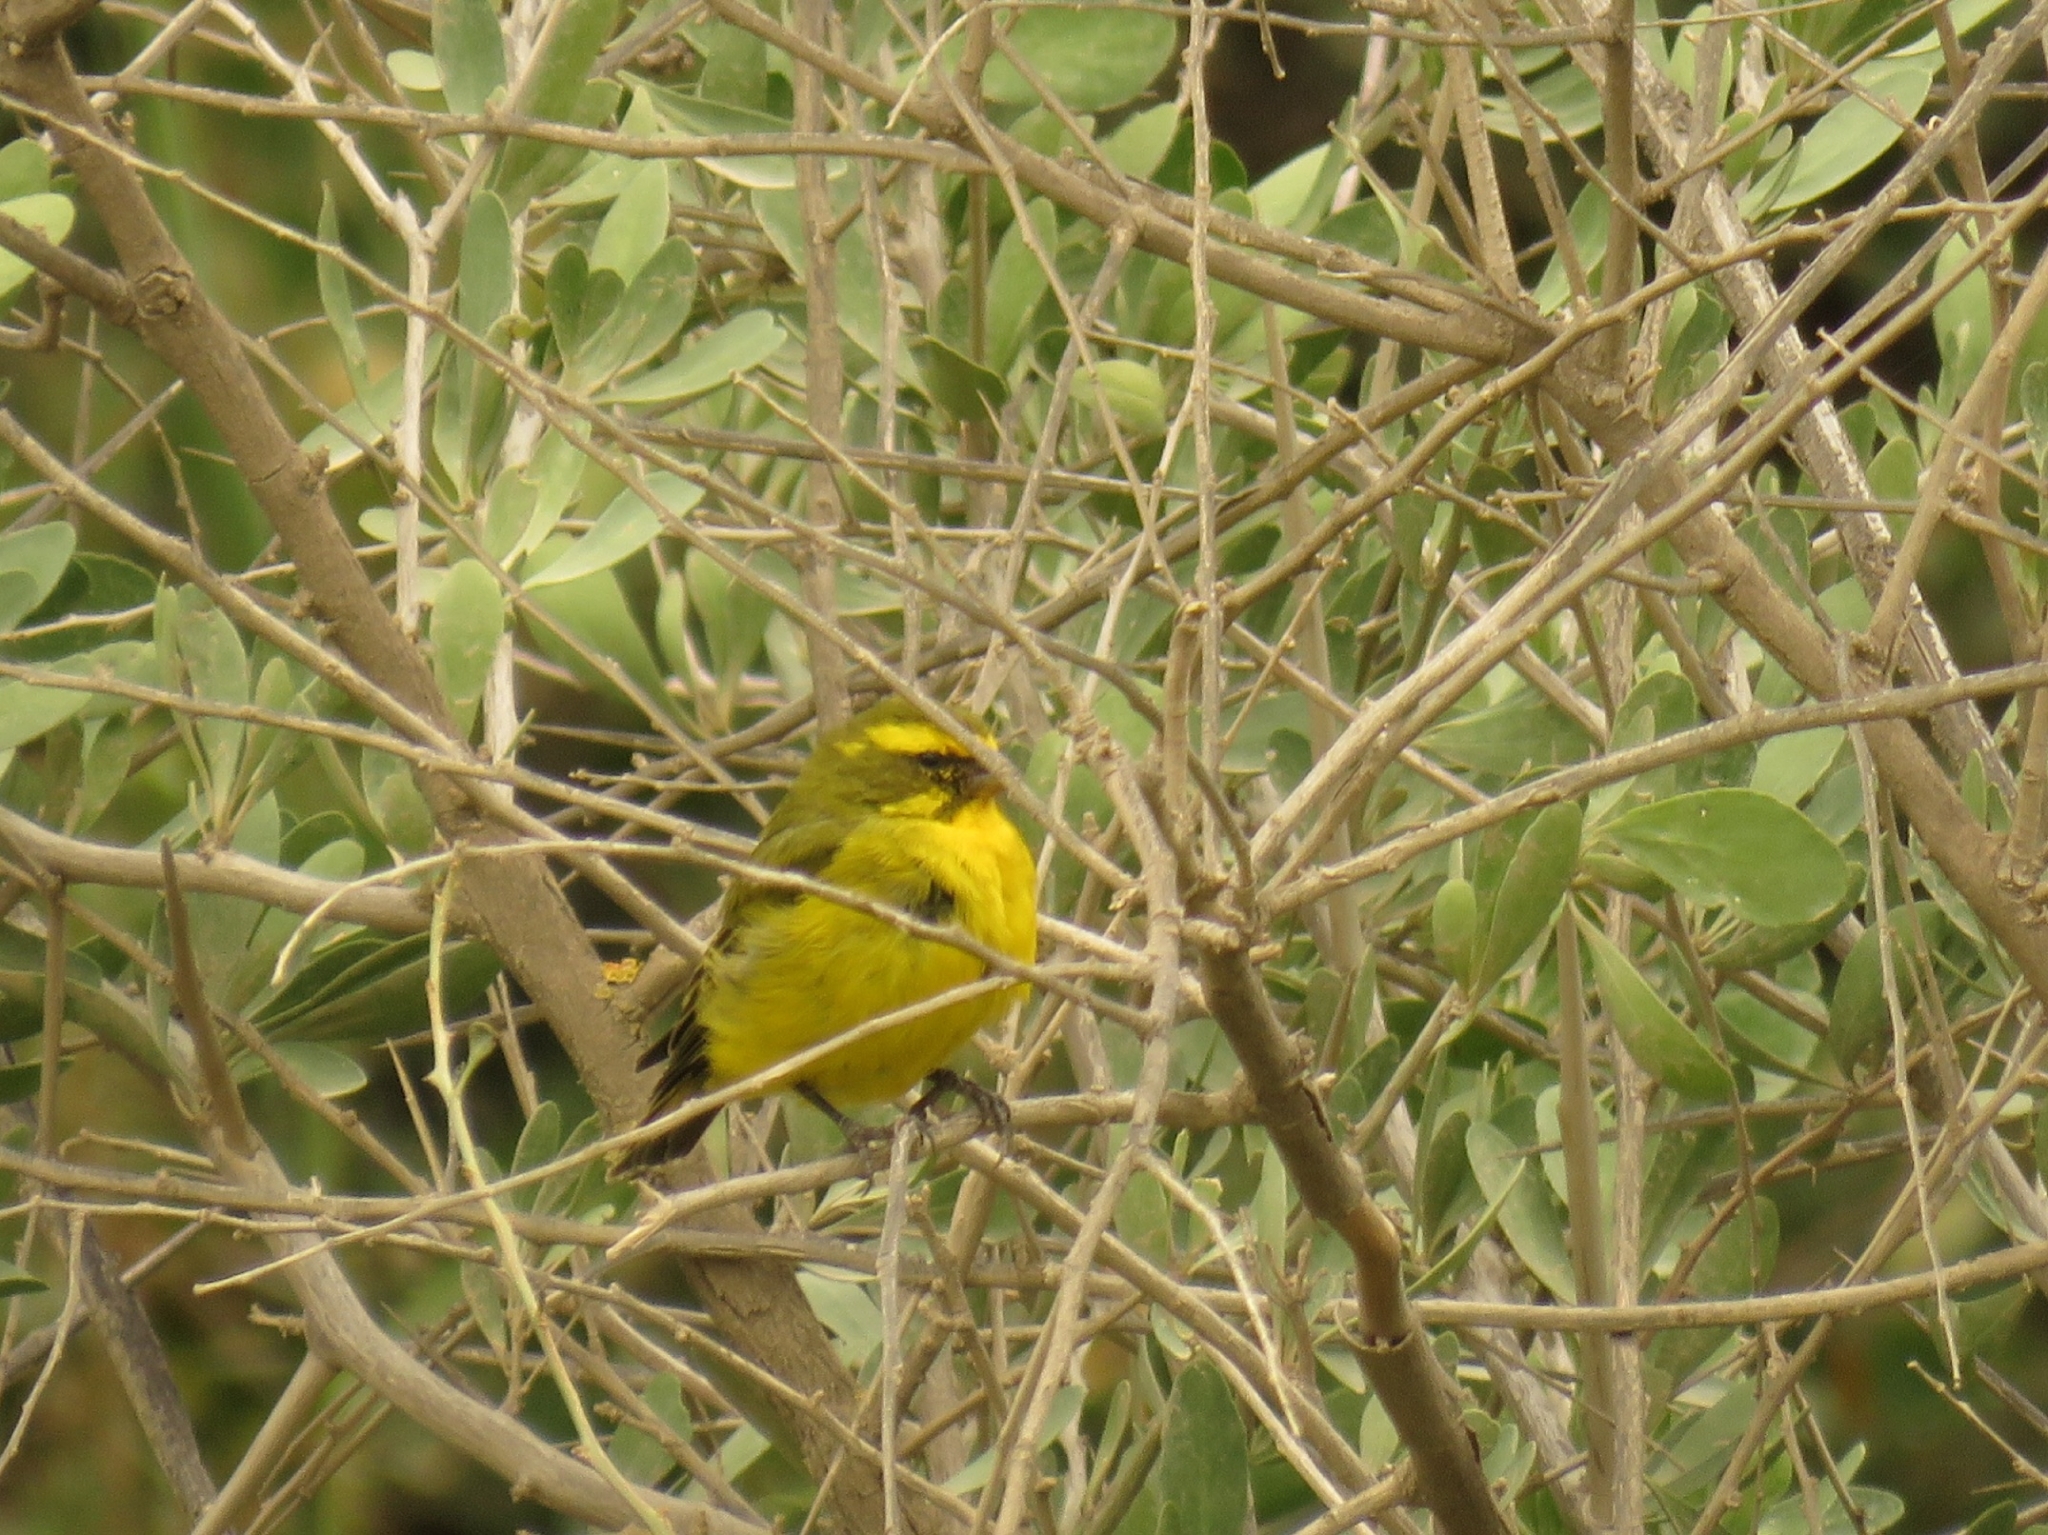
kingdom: Animalia
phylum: Chordata
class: Aves
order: Passeriformes
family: Fringillidae
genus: Crithagra
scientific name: Crithagra flaviventris
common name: Yellow canary
